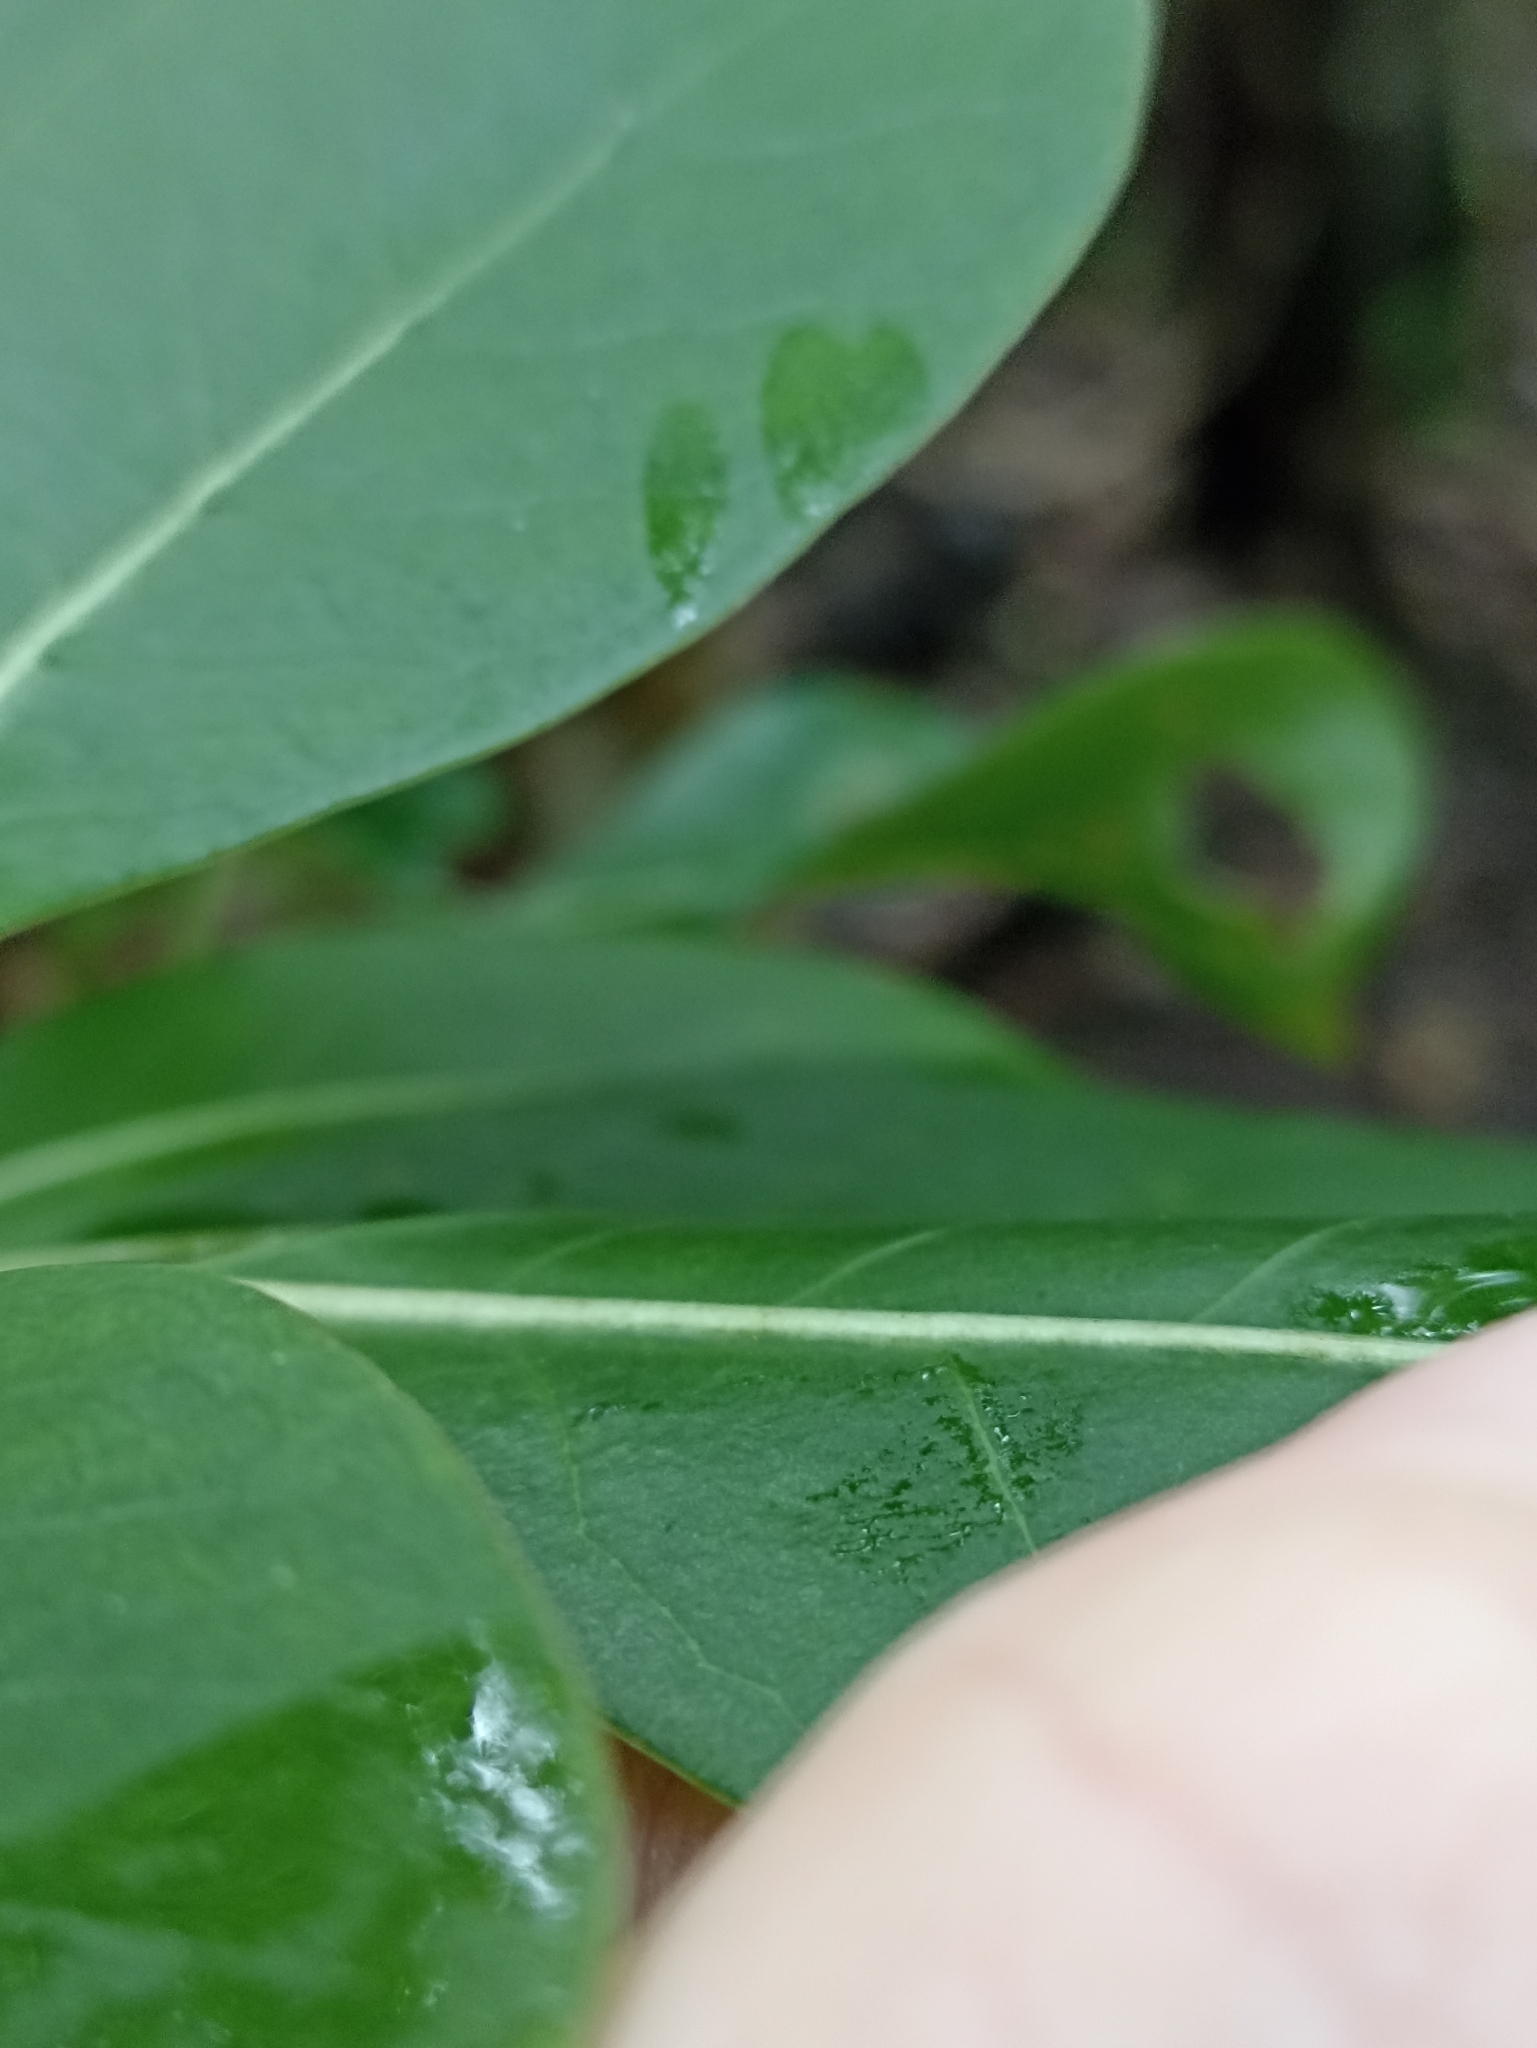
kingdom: Plantae
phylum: Tracheophyta
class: Magnoliopsida
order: Gentianales
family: Rubiaceae
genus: Coprosma
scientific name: Coprosma lucida
